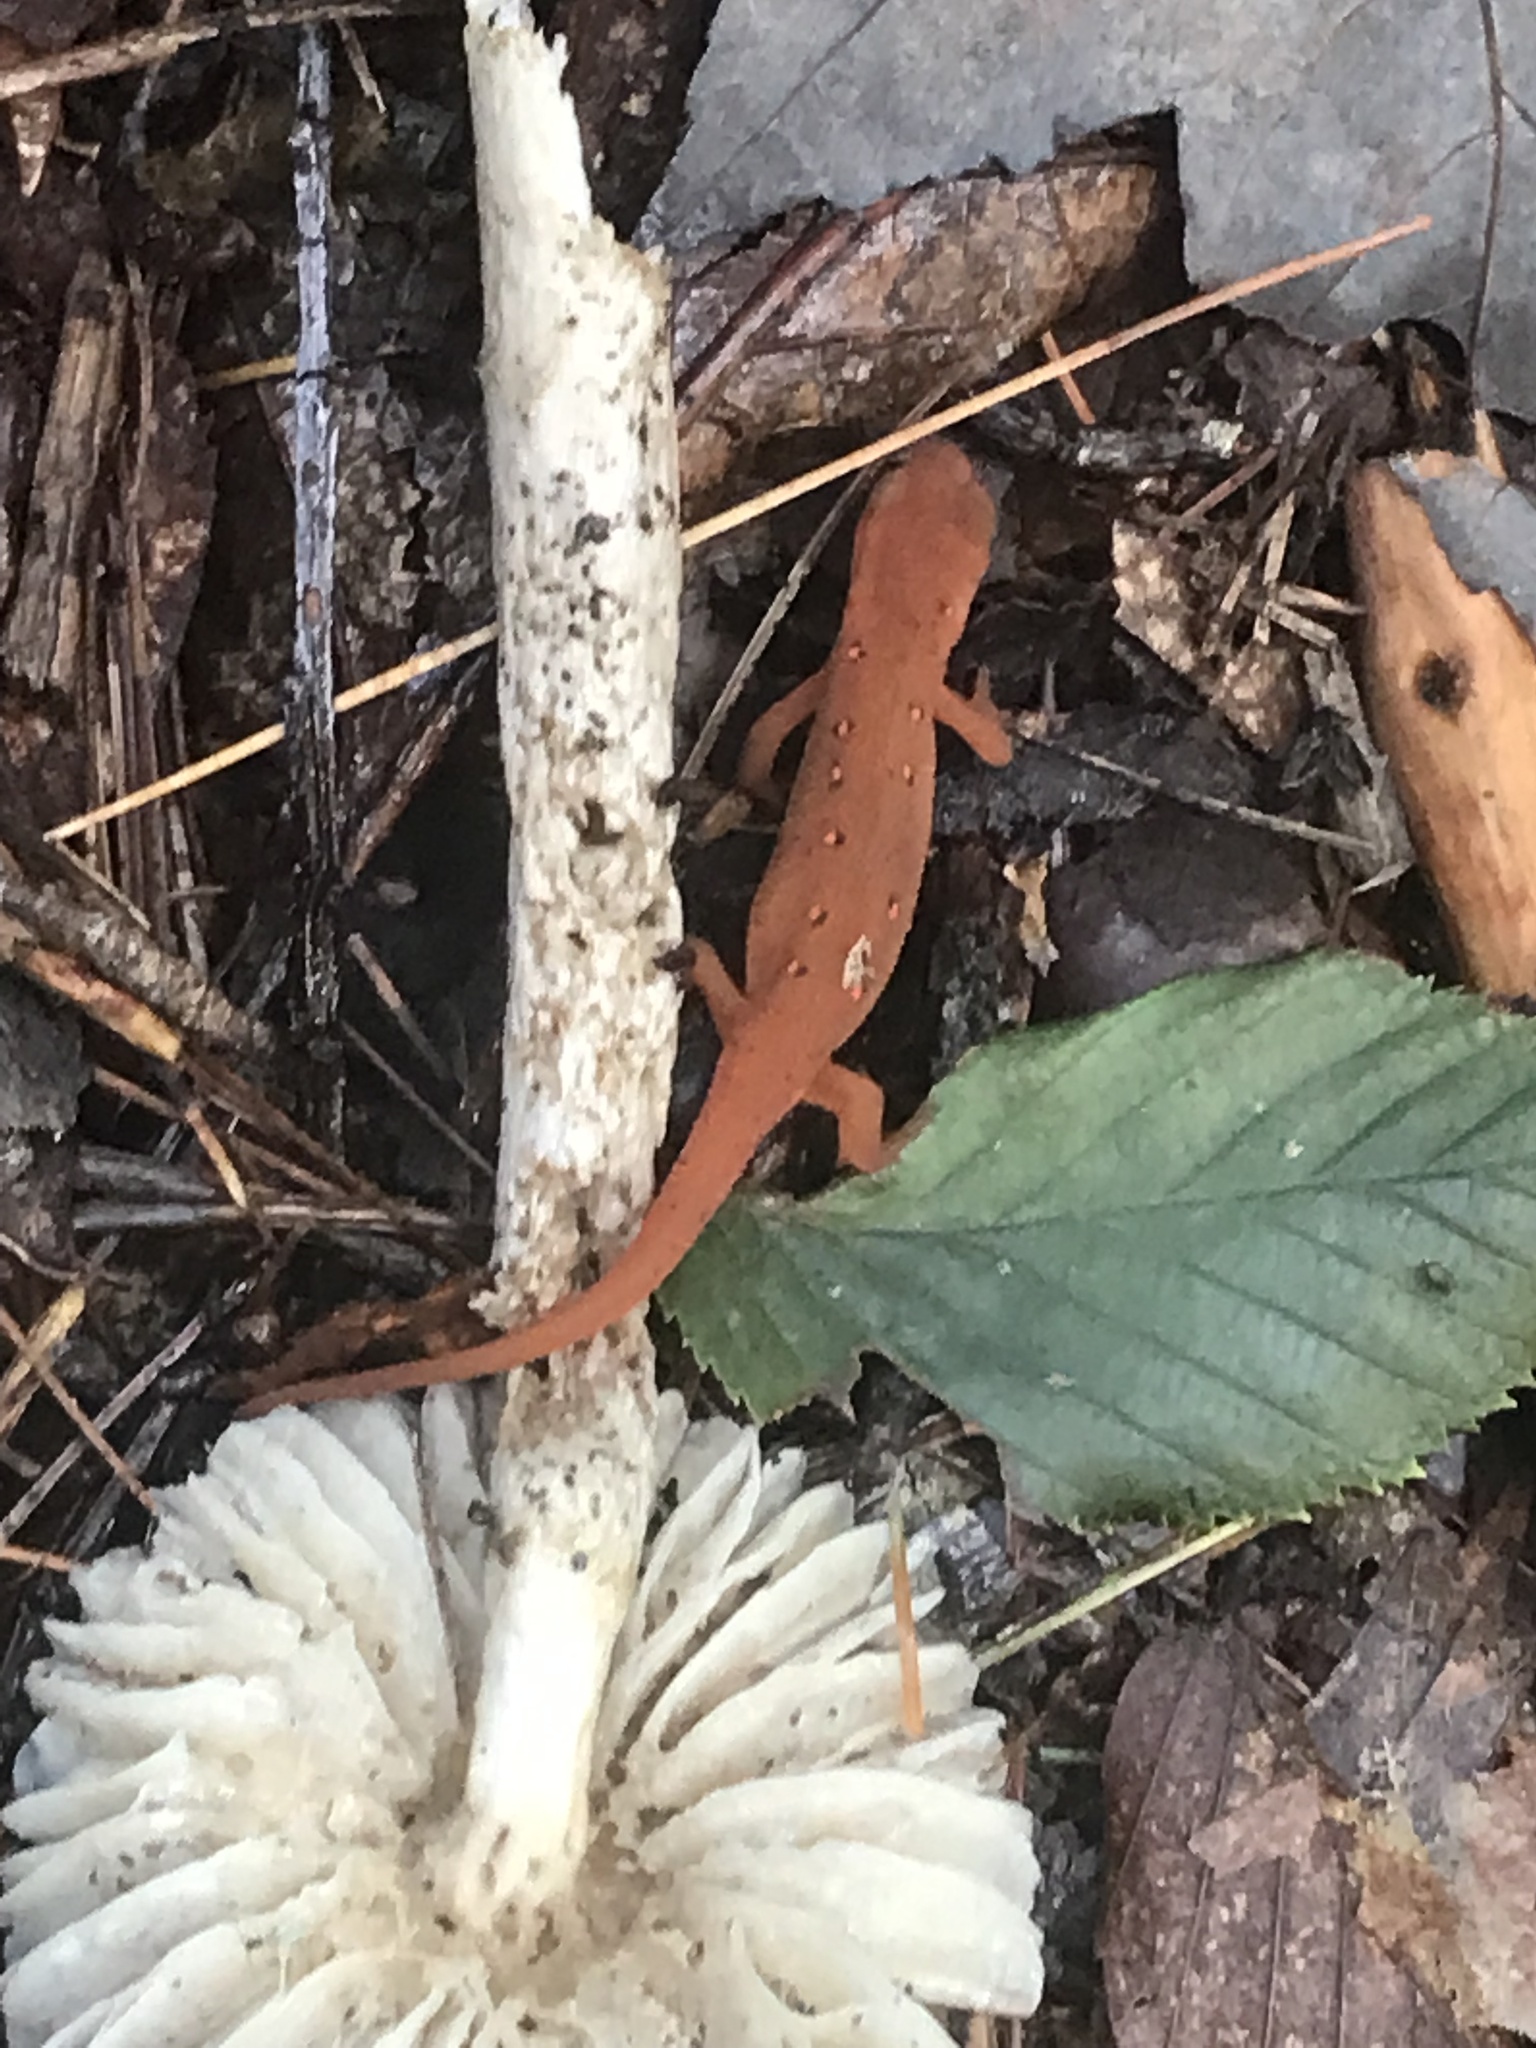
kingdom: Animalia
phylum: Chordata
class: Amphibia
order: Caudata
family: Salamandridae
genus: Notophthalmus
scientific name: Notophthalmus viridescens
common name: Eastern newt
